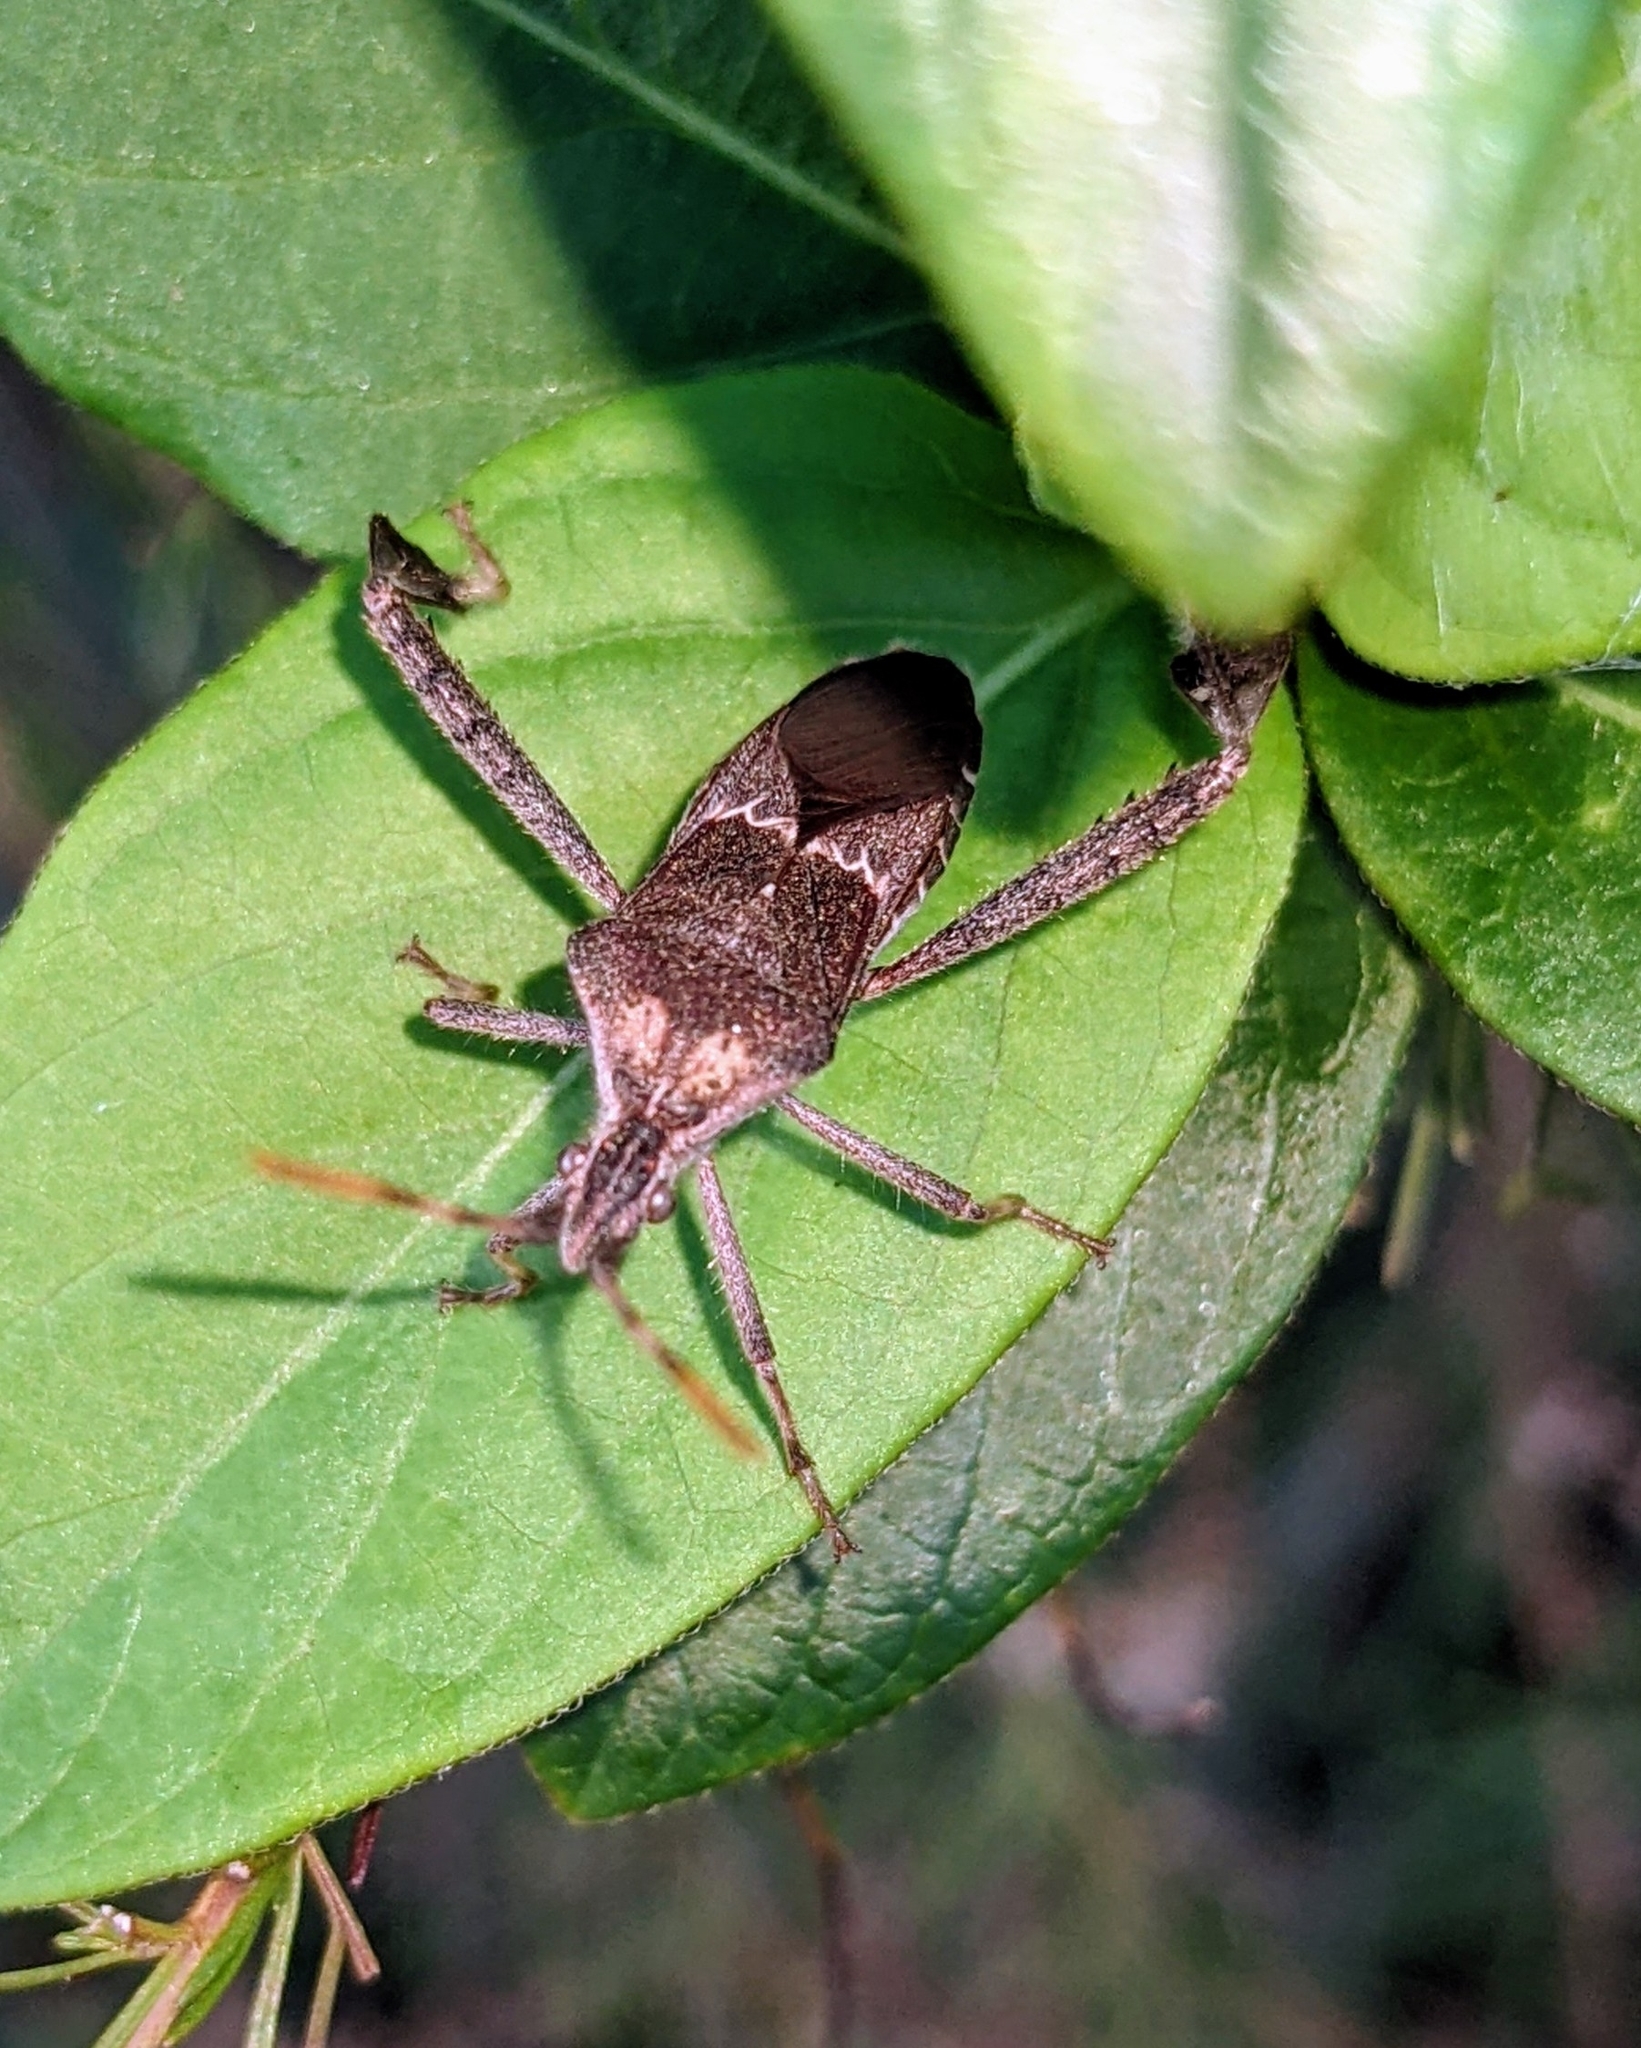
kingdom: Animalia
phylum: Arthropoda
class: Insecta
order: Hemiptera
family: Coreidae
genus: Leptoglossus
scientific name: Leptoglossus zonatus
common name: Large-legged bug
